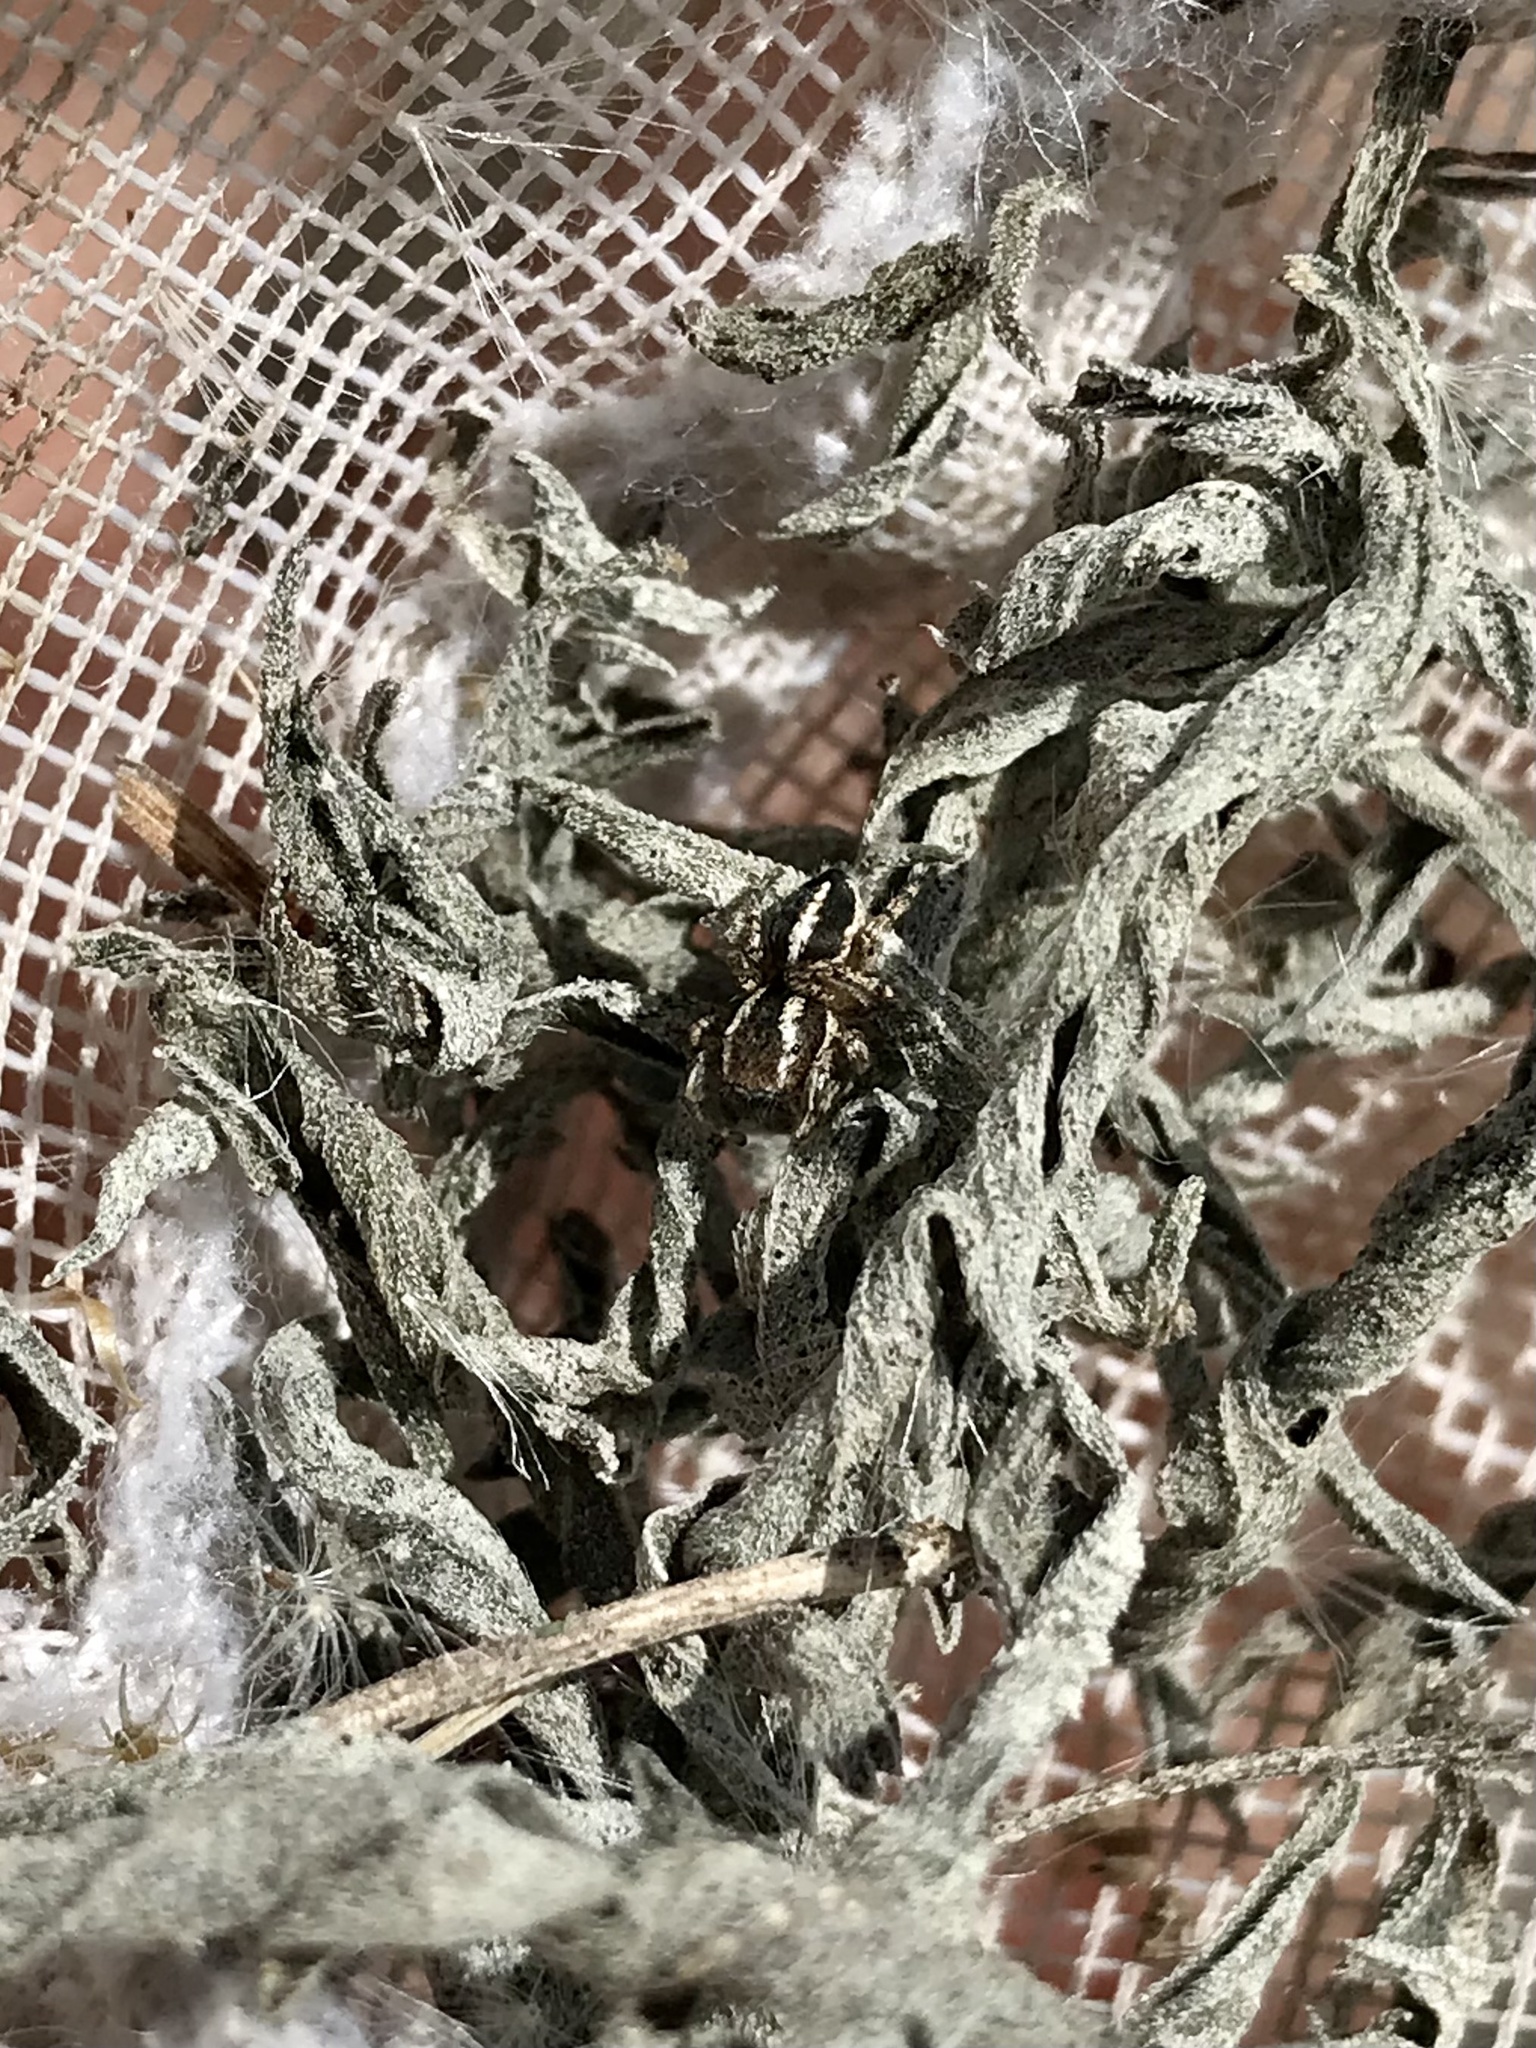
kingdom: Animalia
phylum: Arthropoda
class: Arachnida
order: Araneae
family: Salticidae
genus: Habronattus
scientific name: Habronattus cognatus
